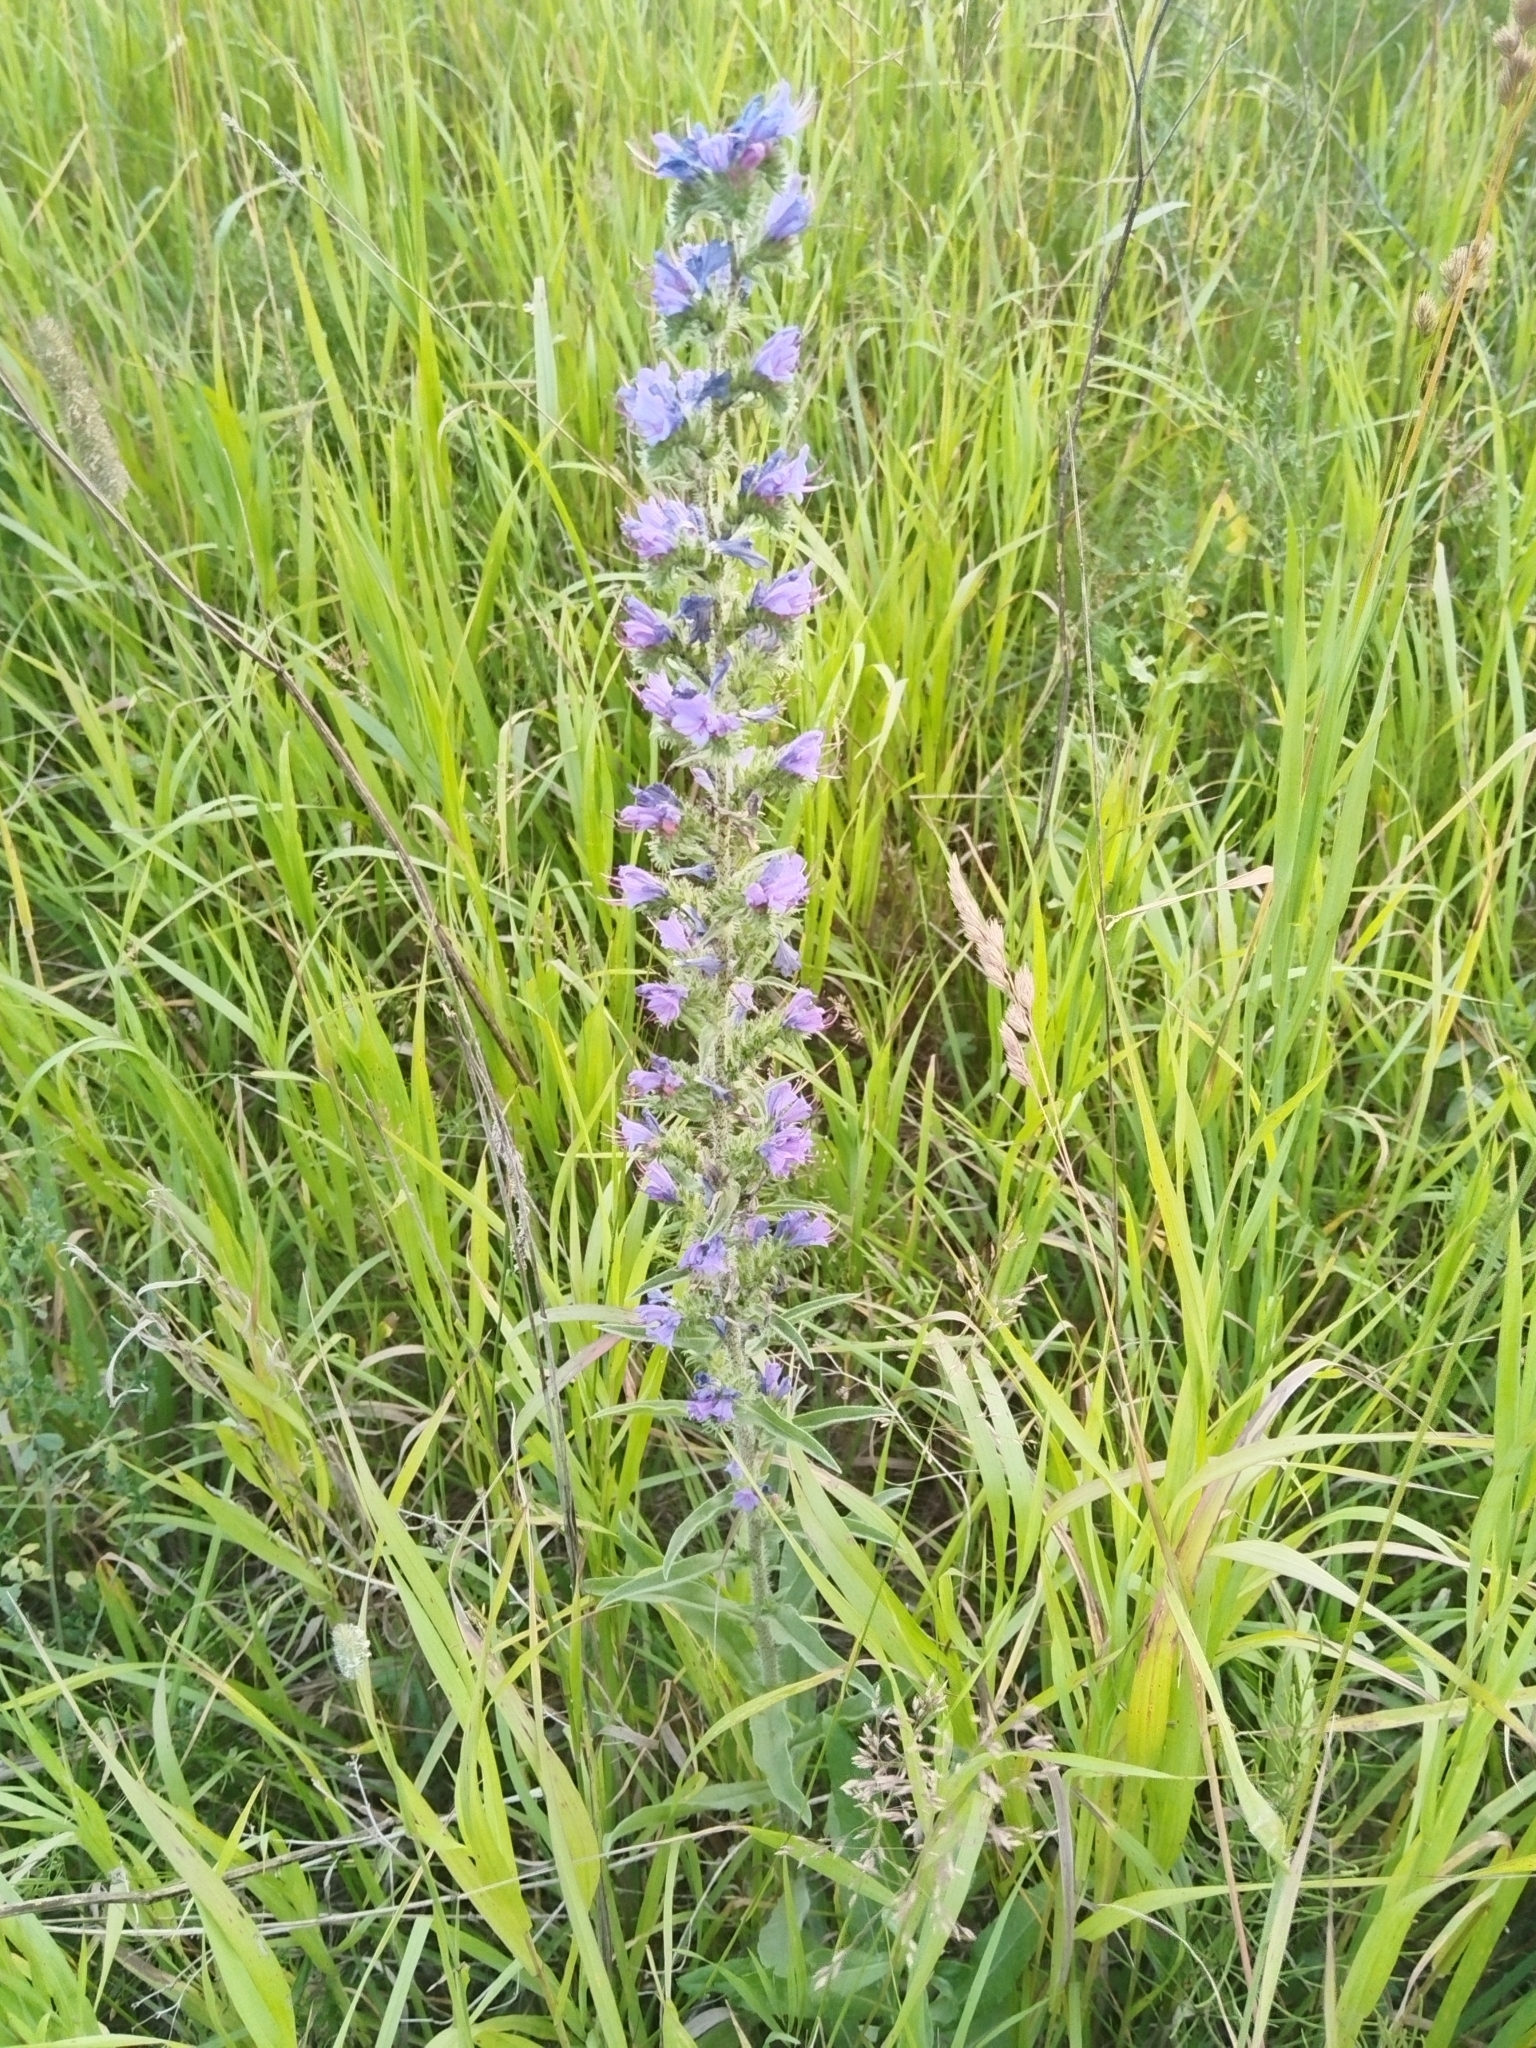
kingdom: Plantae
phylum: Tracheophyta
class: Magnoliopsida
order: Boraginales
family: Boraginaceae
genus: Echium
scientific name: Echium vulgare
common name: Common viper's bugloss
